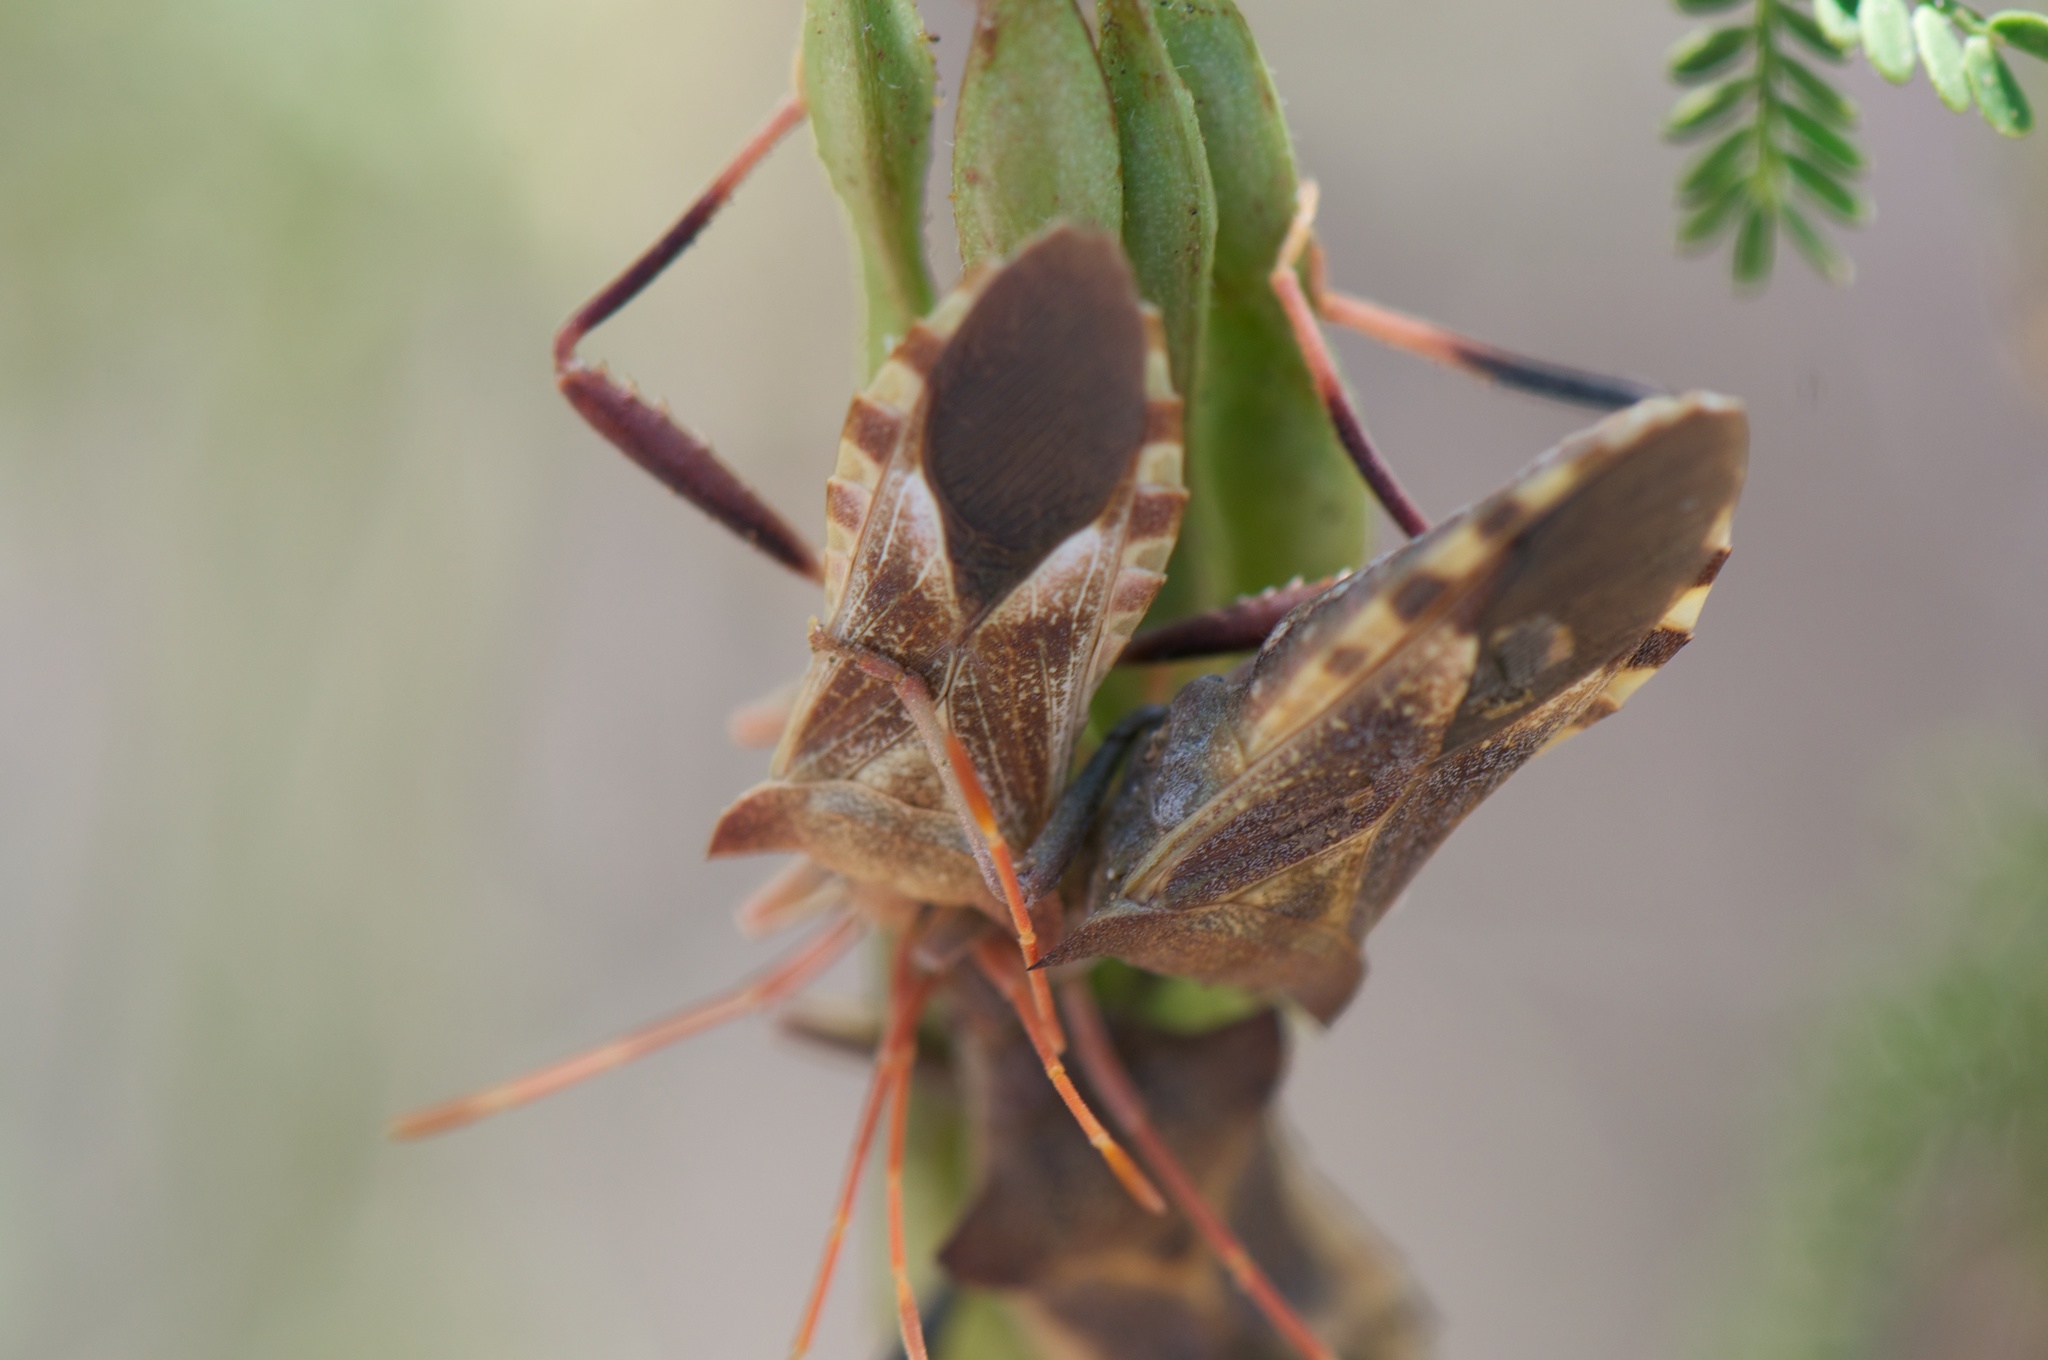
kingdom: Animalia
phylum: Arthropoda
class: Insecta
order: Hemiptera
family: Coreidae
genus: Mozena
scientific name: Mozena arizonensis
